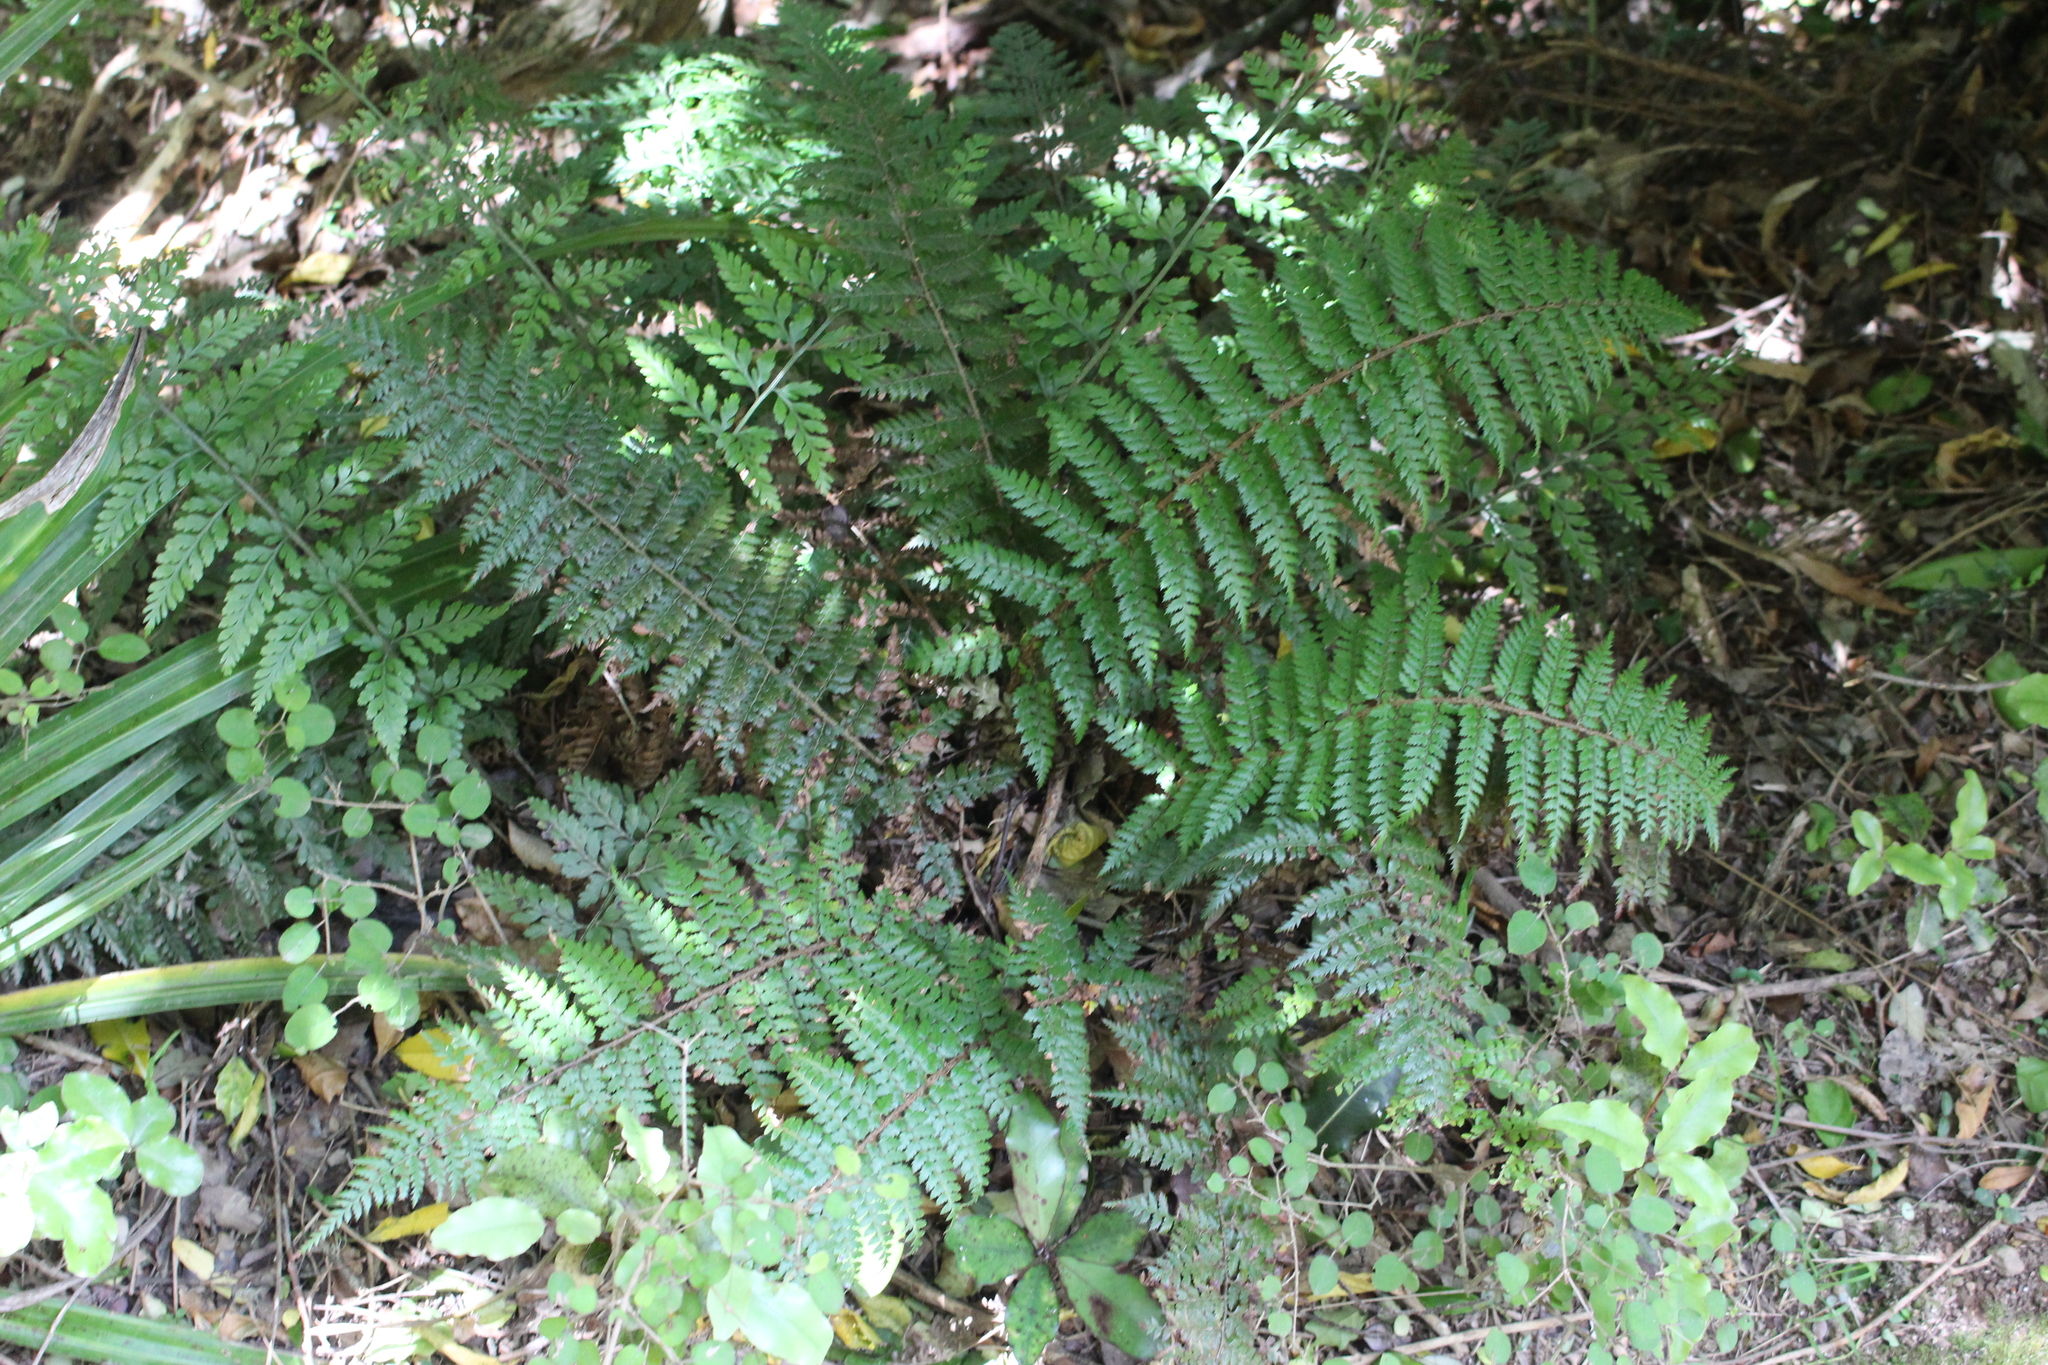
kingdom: Plantae
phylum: Tracheophyta
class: Polypodiopsida
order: Polypodiales
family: Dryopteridaceae
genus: Polystichum
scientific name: Polystichum
